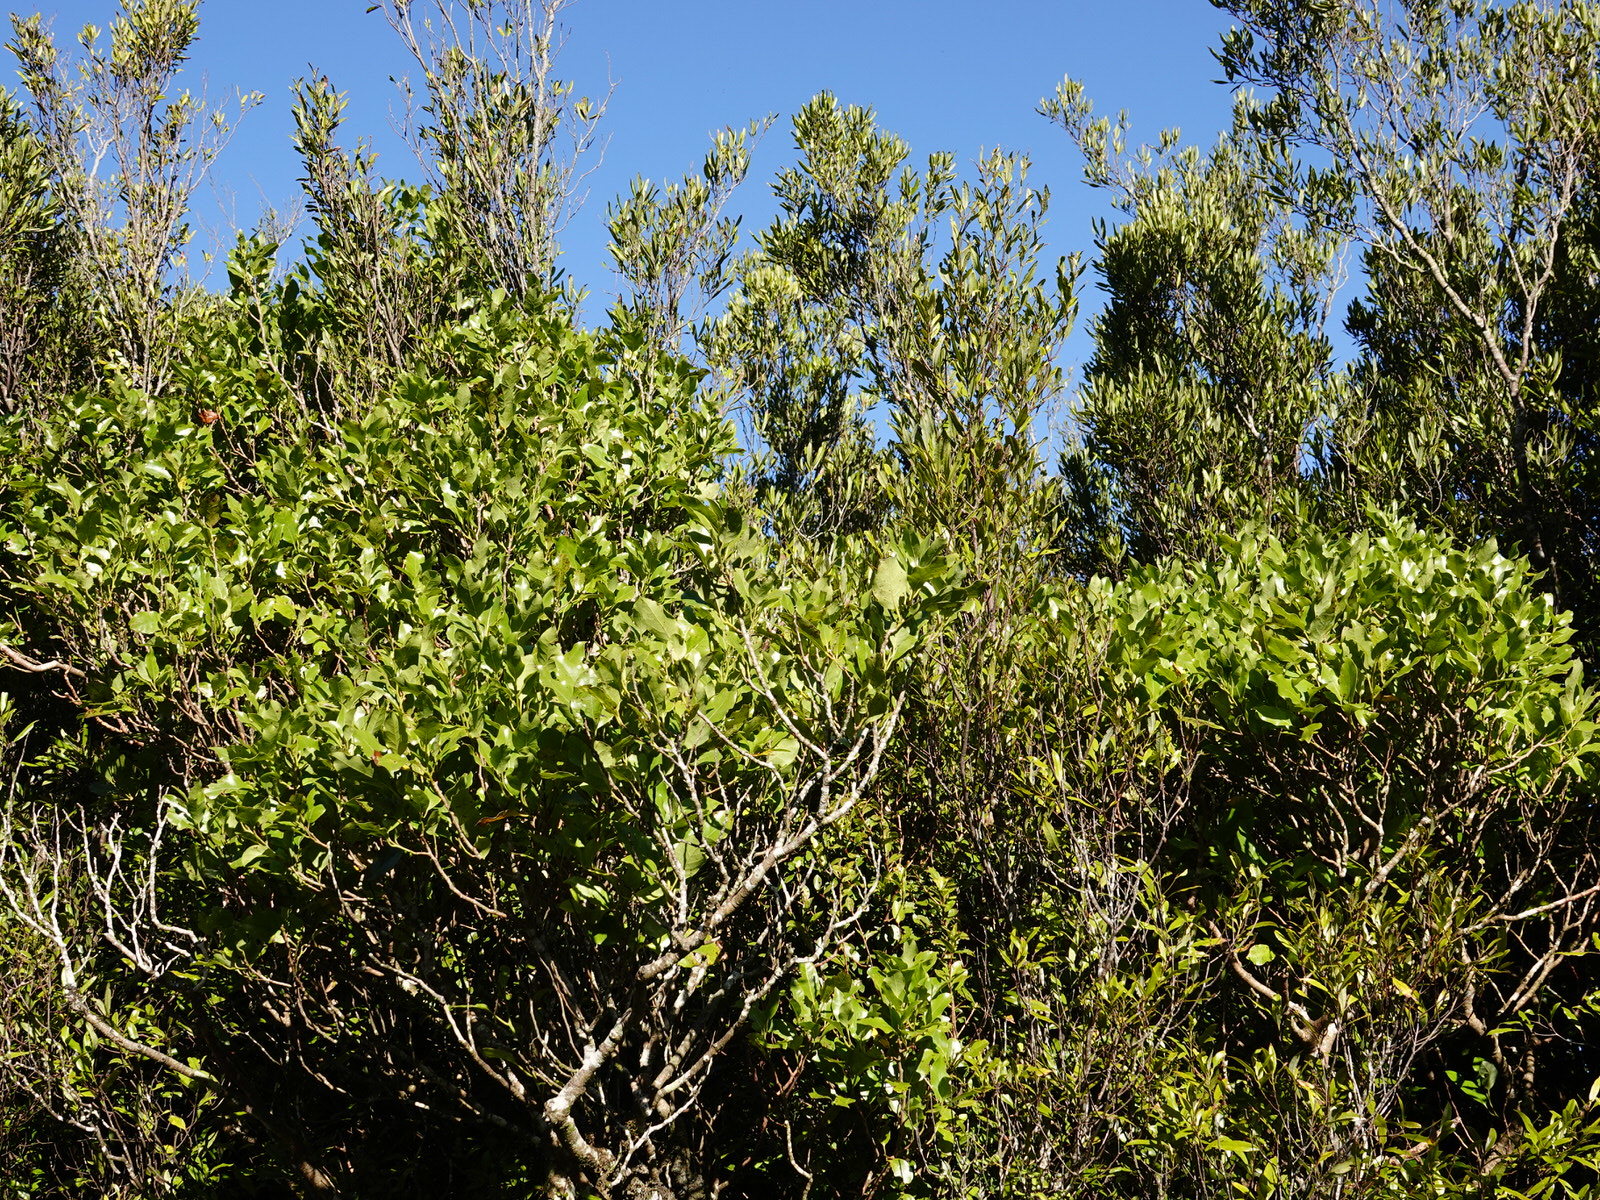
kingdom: Plantae
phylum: Tracheophyta
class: Magnoliopsida
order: Laurales
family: Lauraceae
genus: Litsea
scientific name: Litsea calicaris
